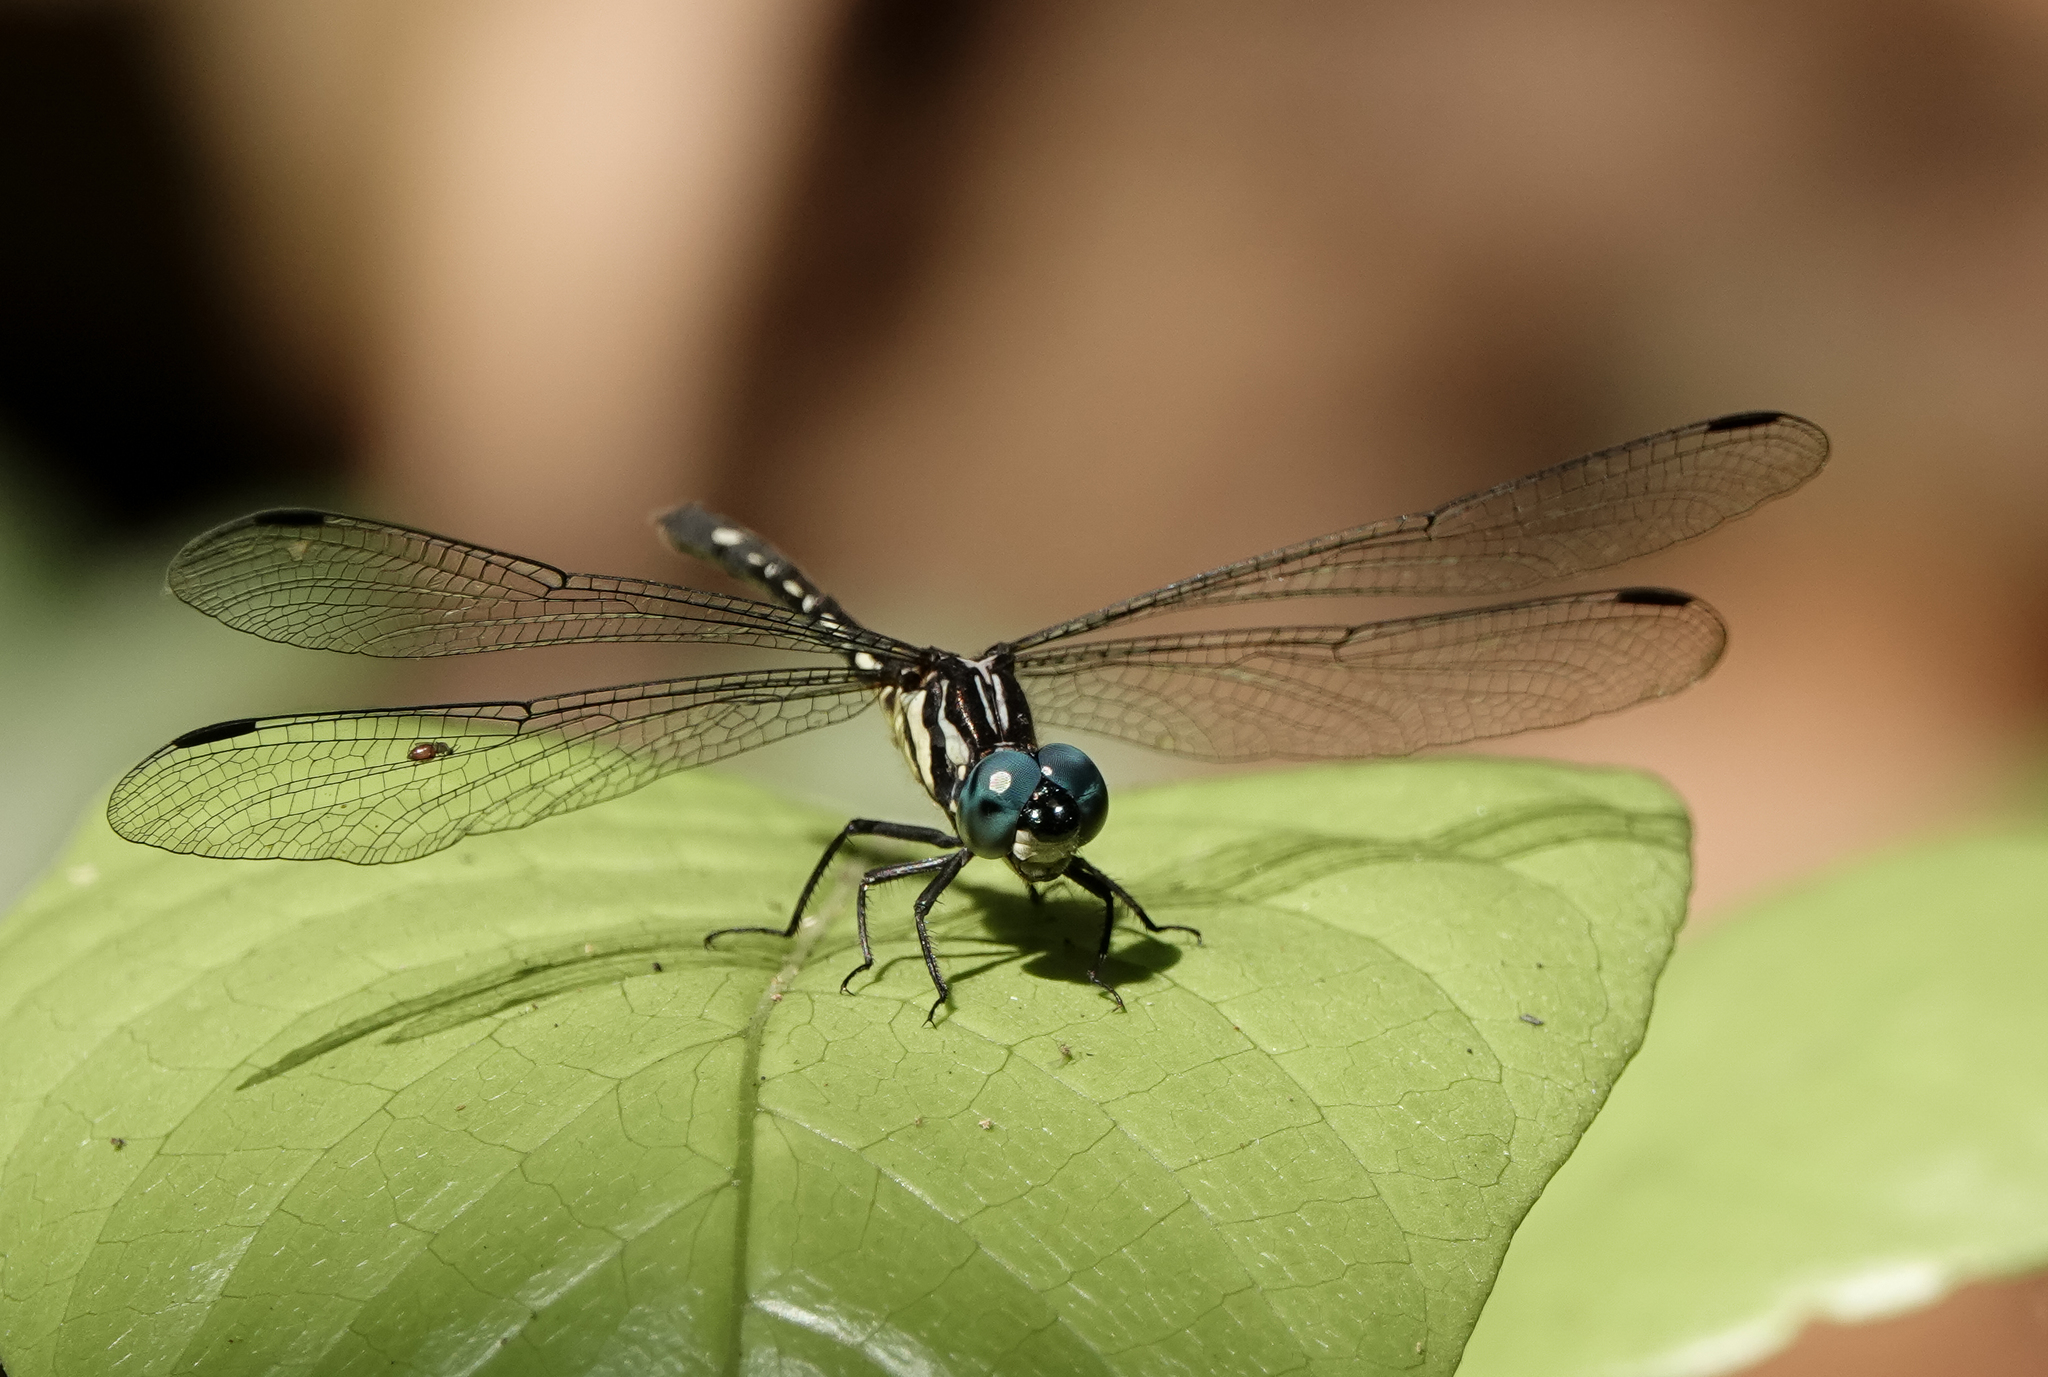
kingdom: Animalia
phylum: Arthropoda
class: Insecta
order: Odonata
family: Libellulidae
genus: Phyllothemis
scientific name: Phyllothemis eltoni
